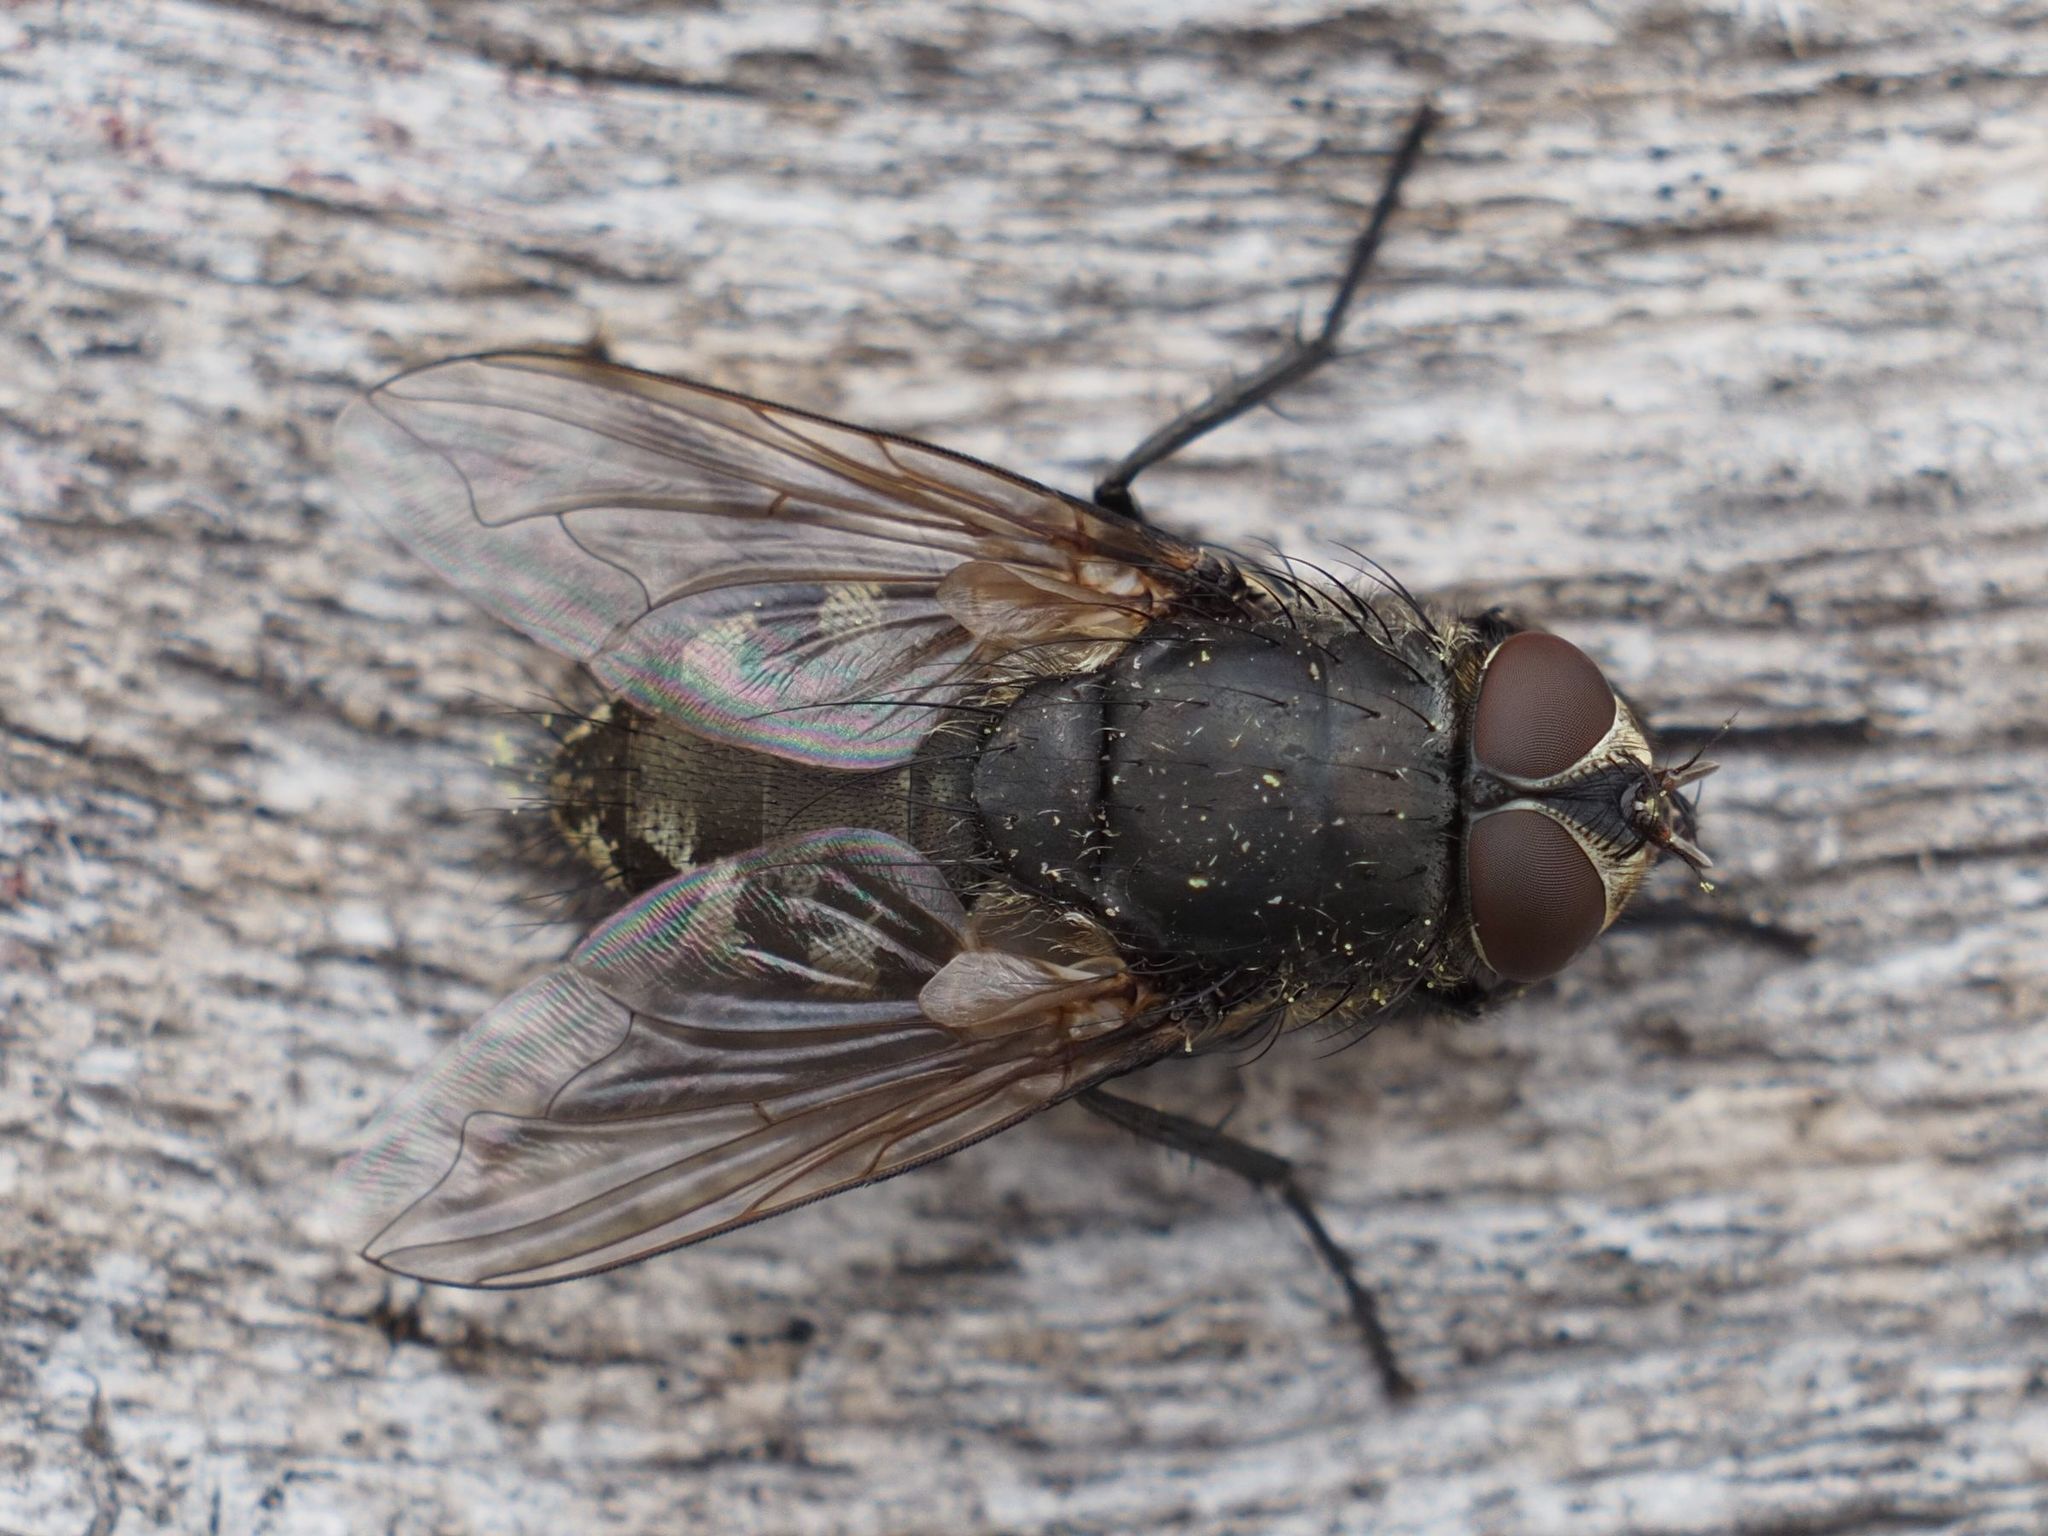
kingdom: Animalia
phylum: Arthropoda
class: Insecta
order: Diptera
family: Polleniidae
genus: Pollenia
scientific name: Pollenia intermedia
